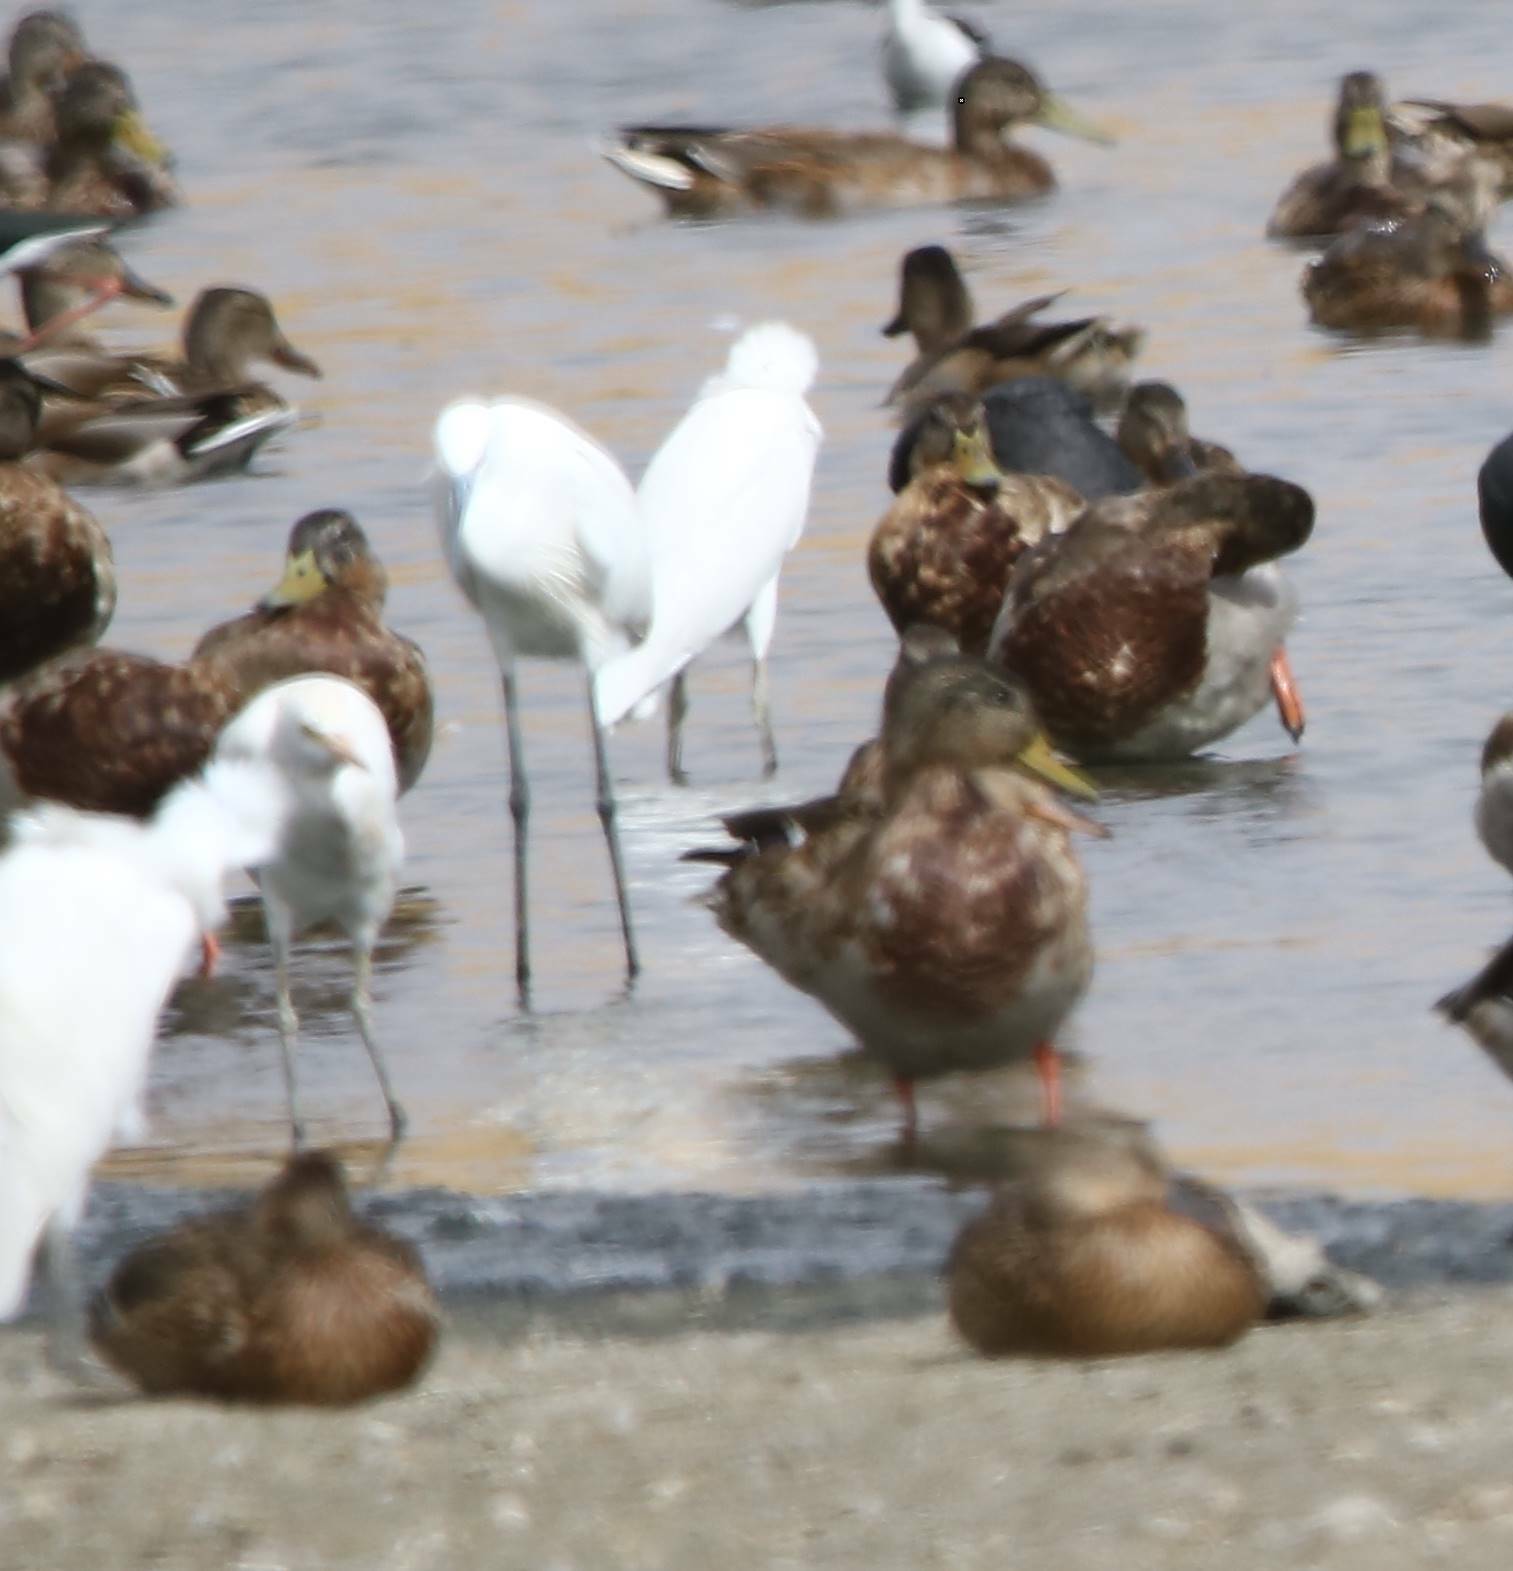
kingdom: Animalia
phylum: Chordata
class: Aves
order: Pelecaniformes
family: Ardeidae
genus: Egretta
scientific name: Egretta garzetta
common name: Little egret
